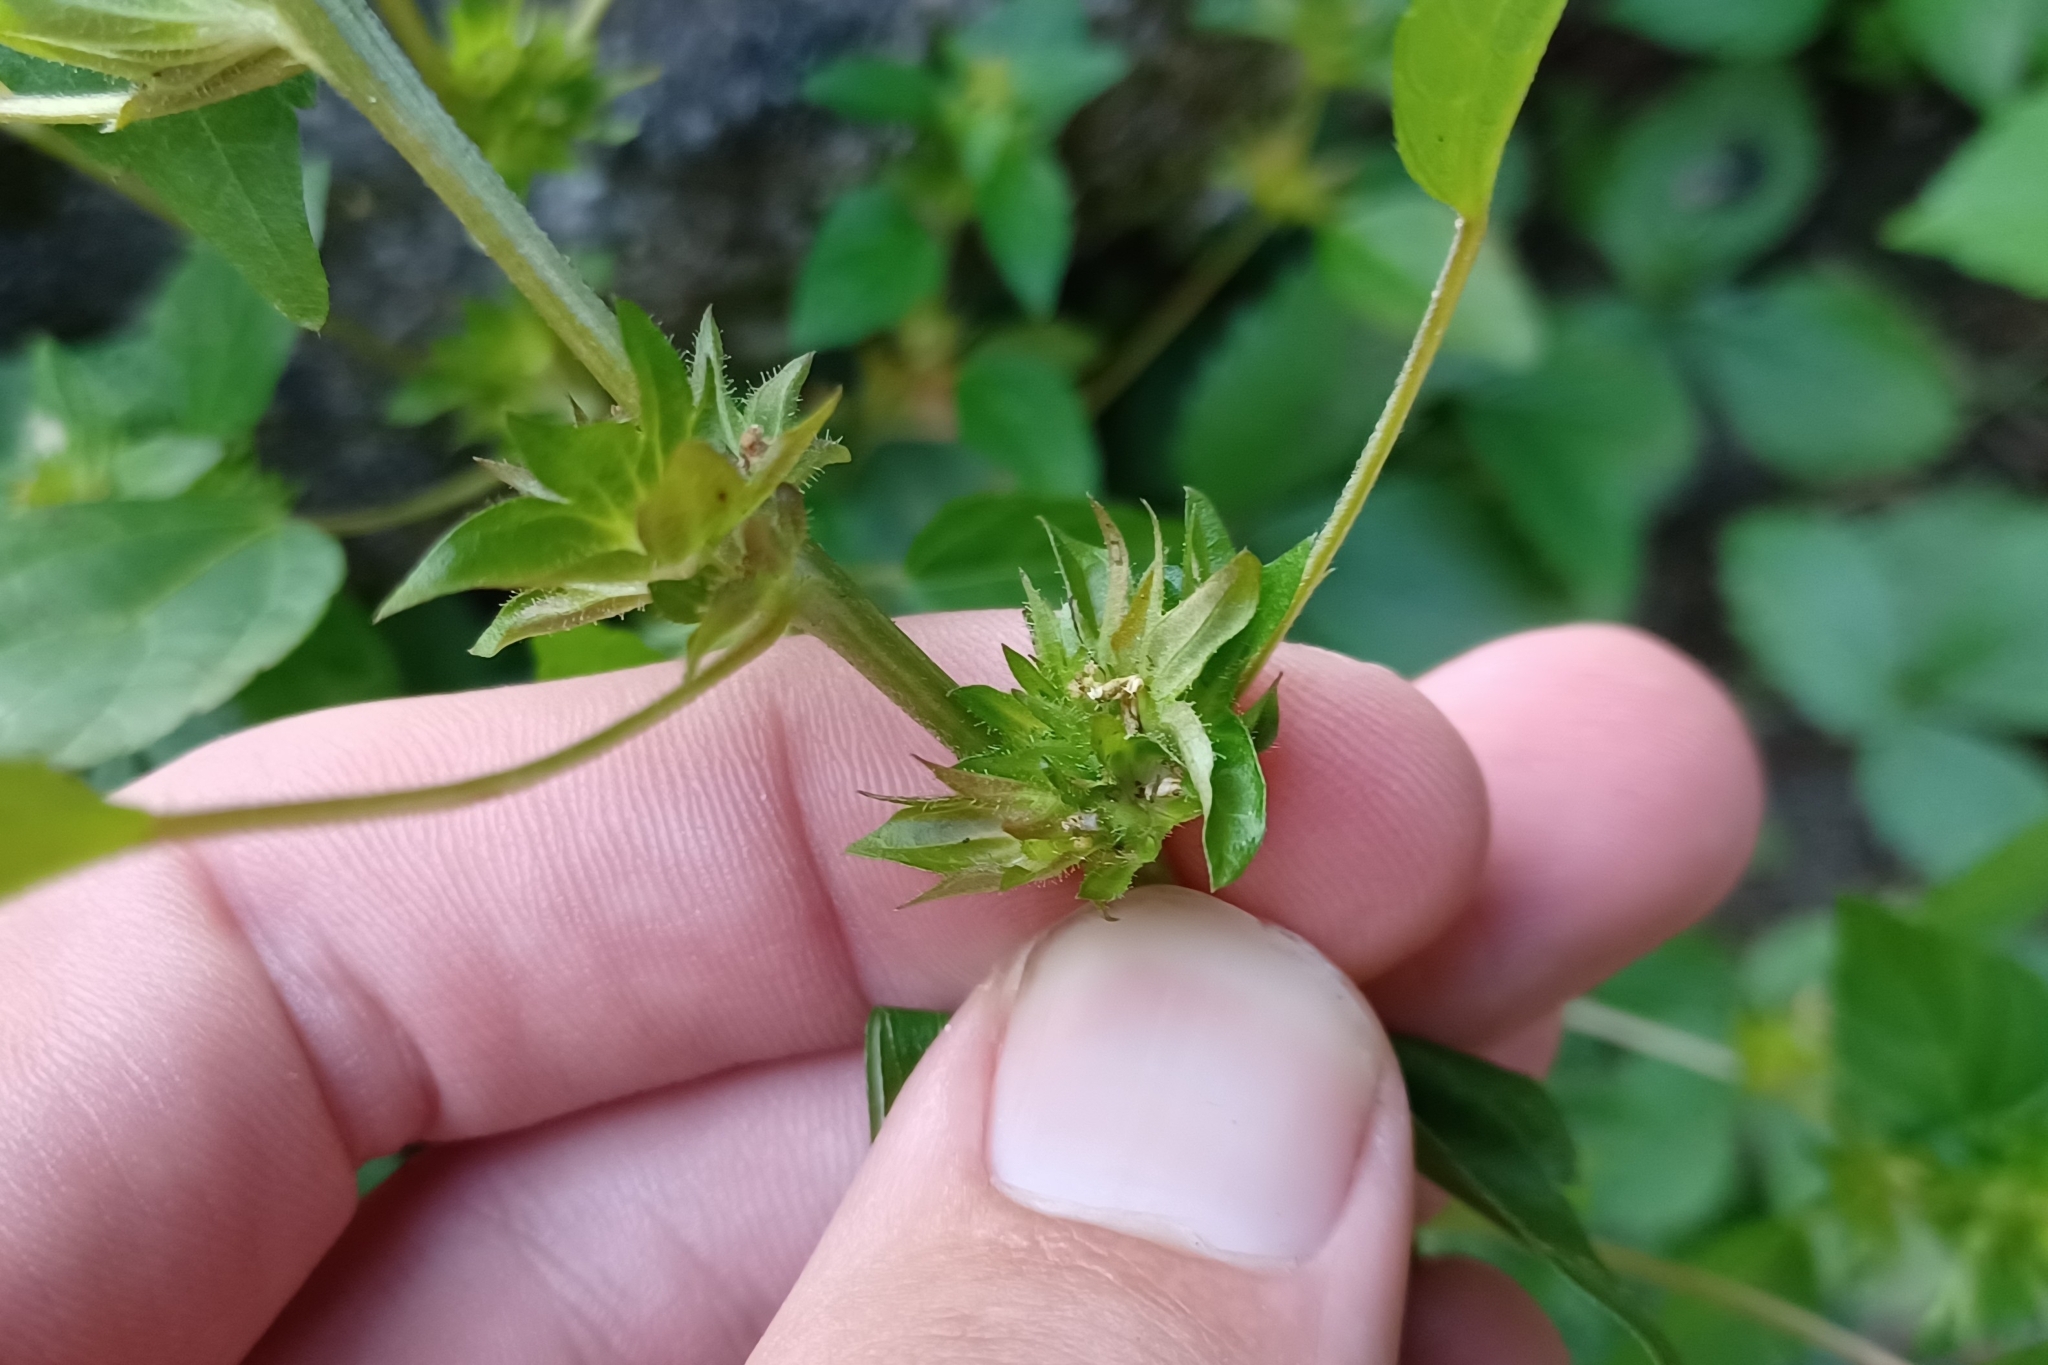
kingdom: Plantae
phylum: Tracheophyta
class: Magnoliopsida
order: Malpighiales
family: Euphorbiaceae
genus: Acalypha
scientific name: Acalypha rhomboidea
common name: Rhombic copperleaf
